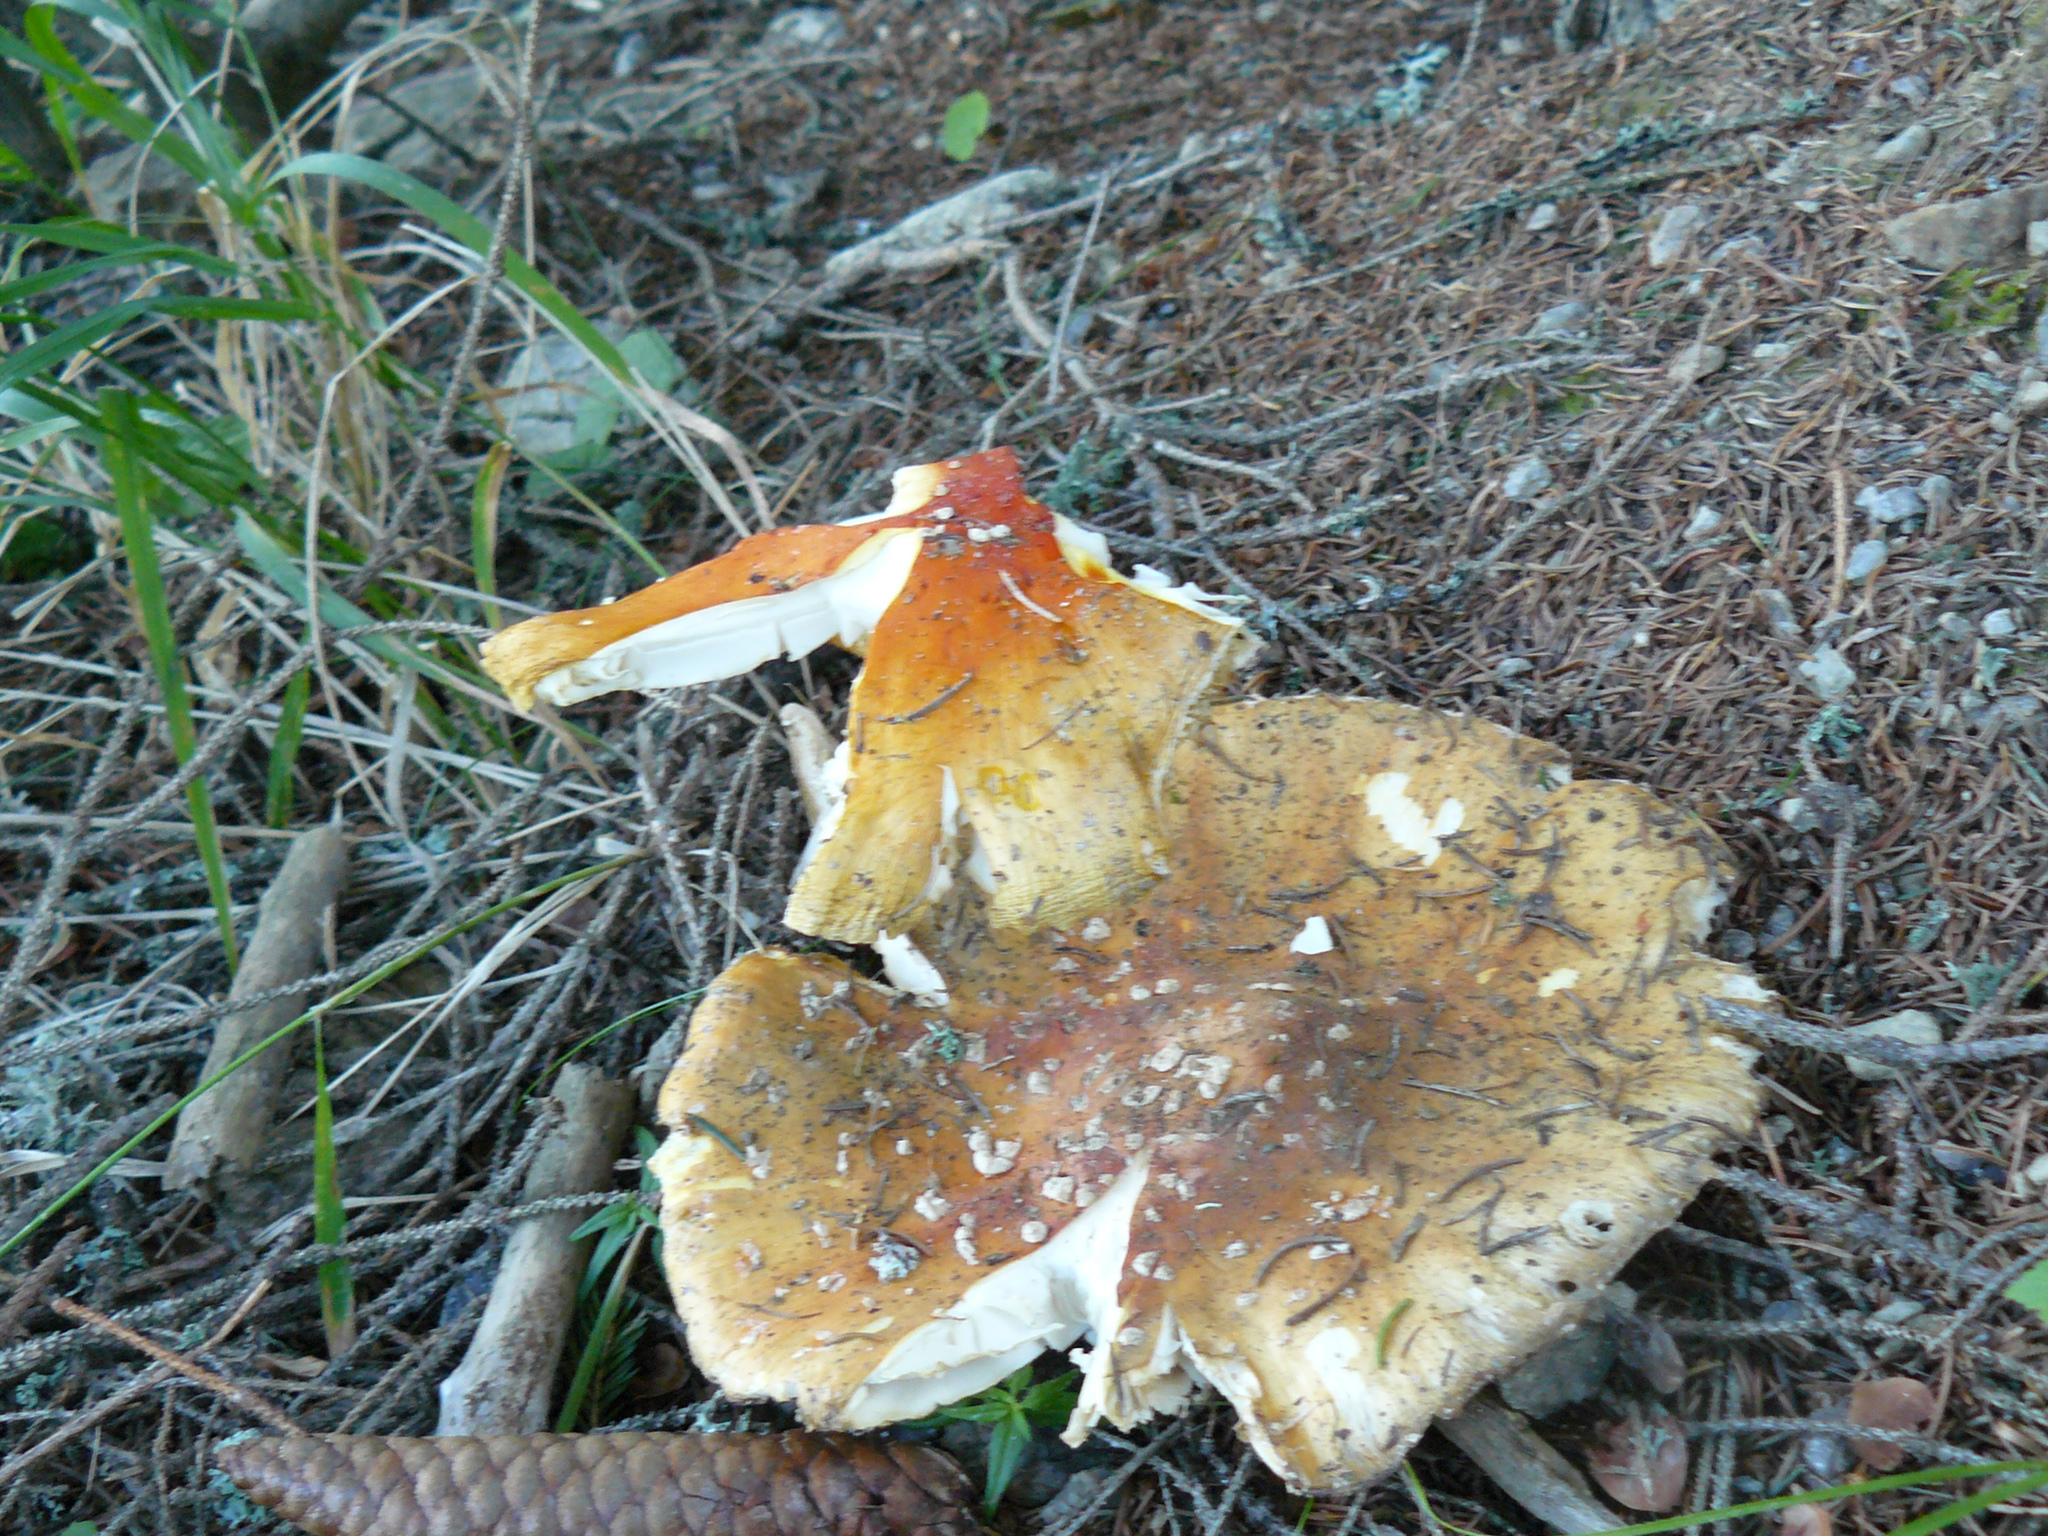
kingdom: Fungi
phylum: Basidiomycota
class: Agaricomycetes
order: Agaricales
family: Amanitaceae
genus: Amanita
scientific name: Amanita muscaria
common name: Fly agaric
